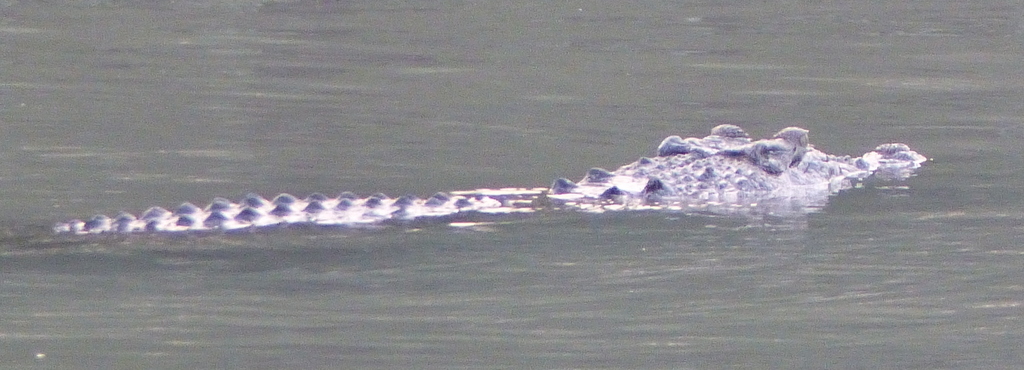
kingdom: Animalia
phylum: Chordata
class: Crocodylia
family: Crocodylidae
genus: Crocodylus
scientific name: Crocodylus porosus
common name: Saltwater crocodile
